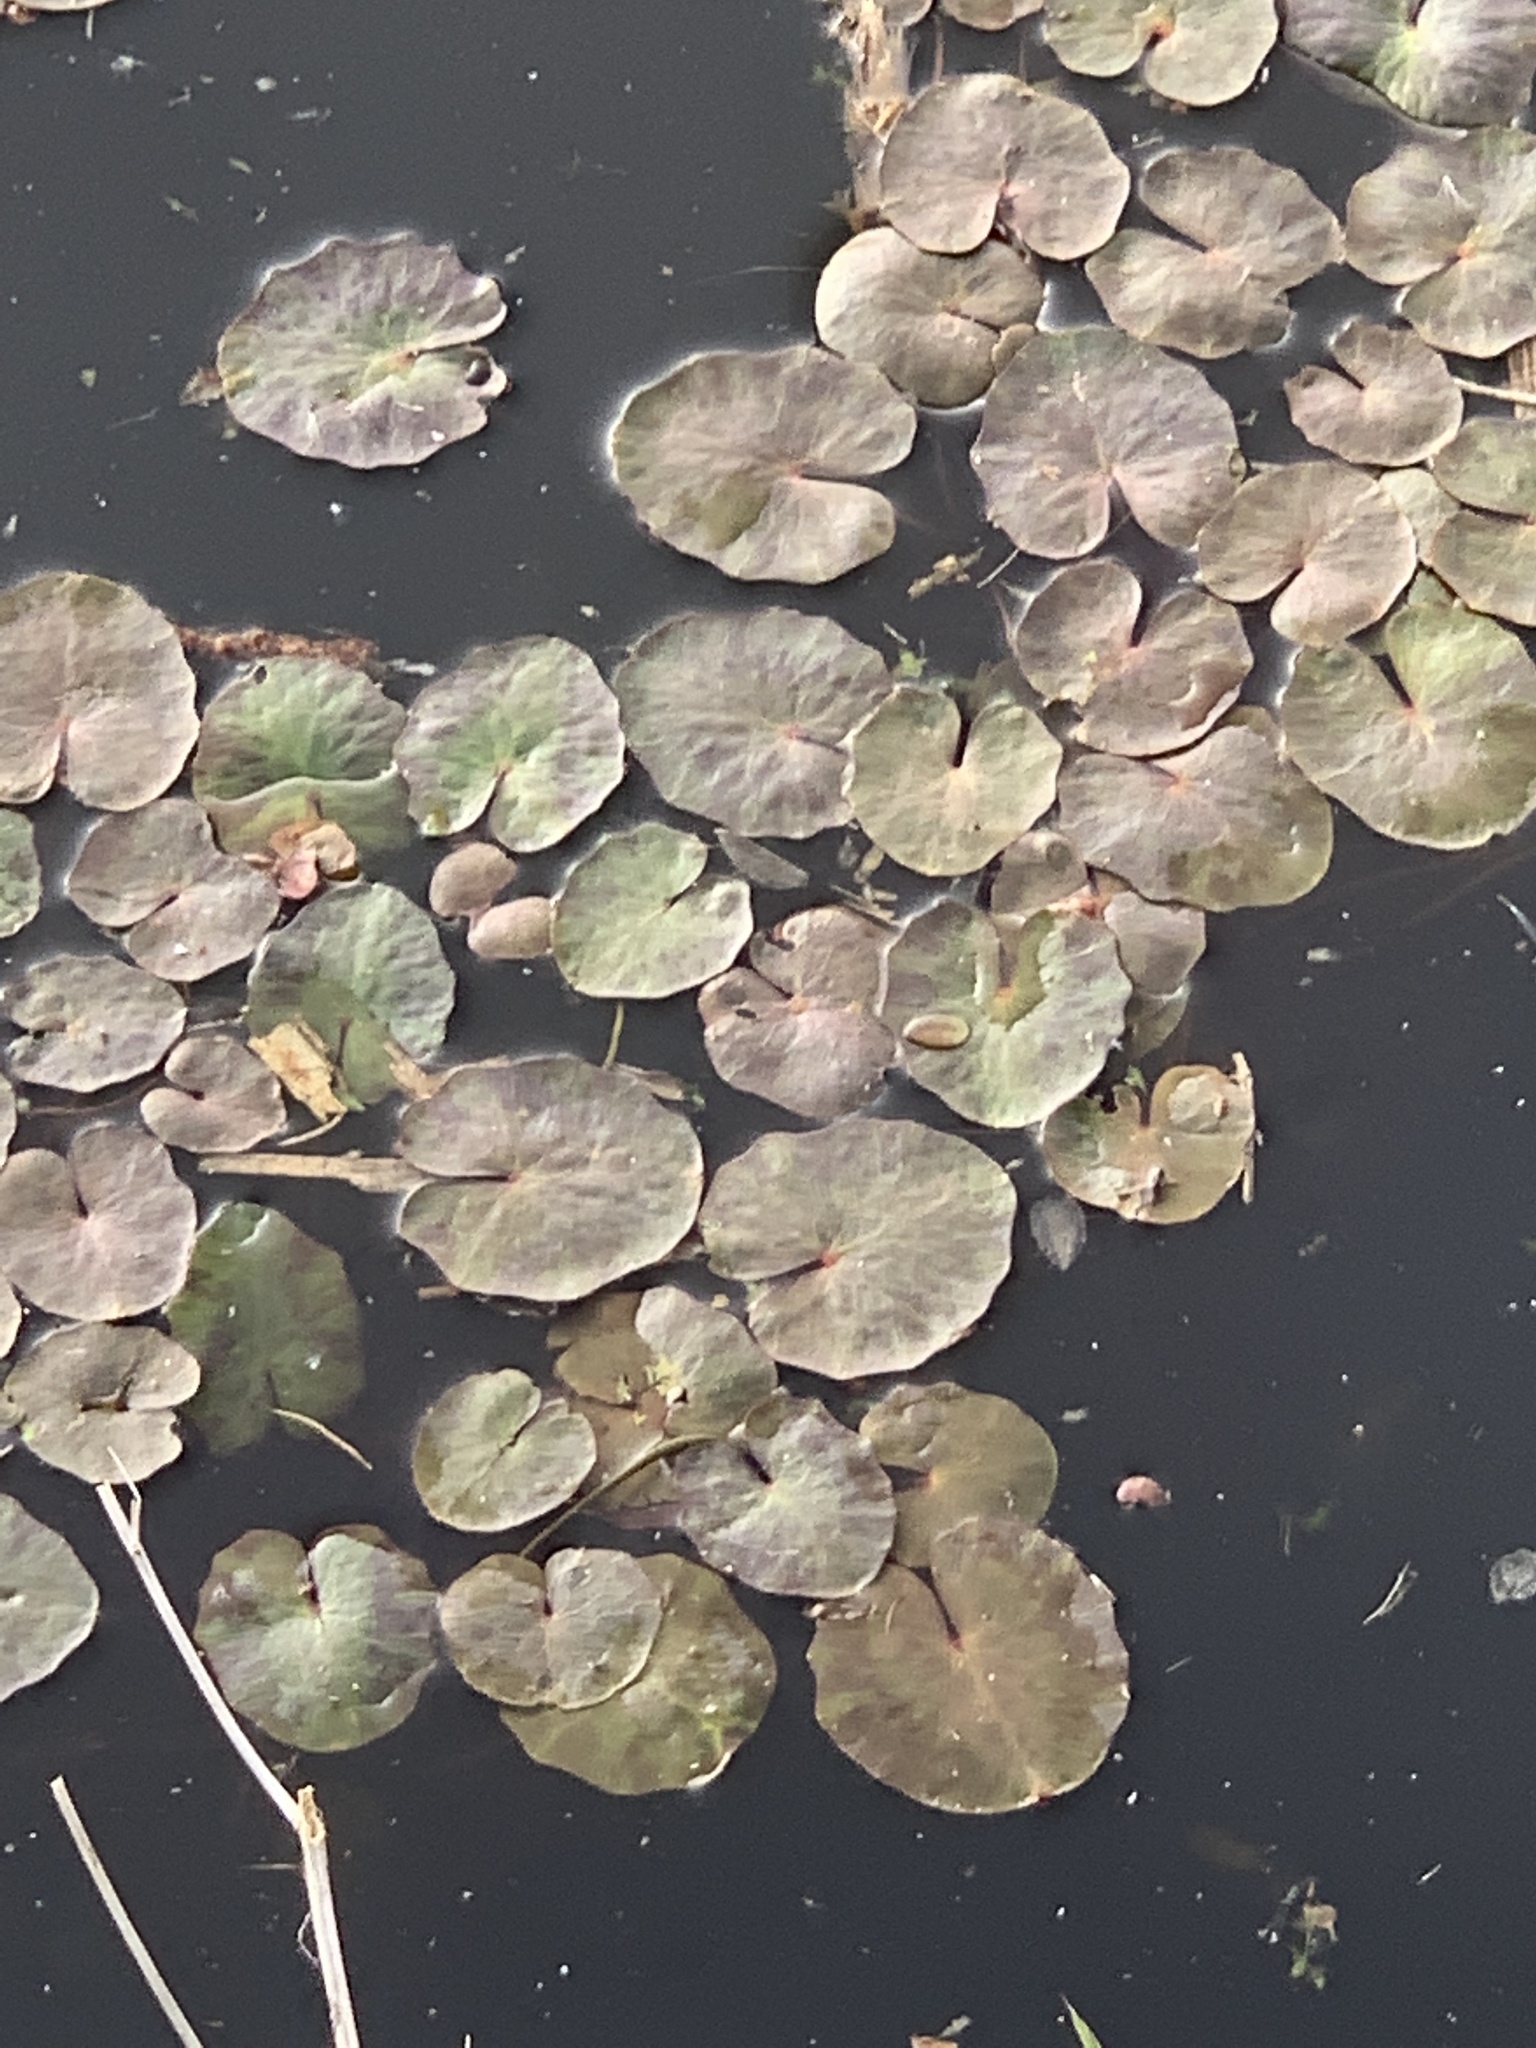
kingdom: Plantae
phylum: Tracheophyta
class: Magnoliopsida
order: Asterales
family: Menyanthaceae
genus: Nymphoides
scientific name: Nymphoides peltata
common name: Fringed water-lily
